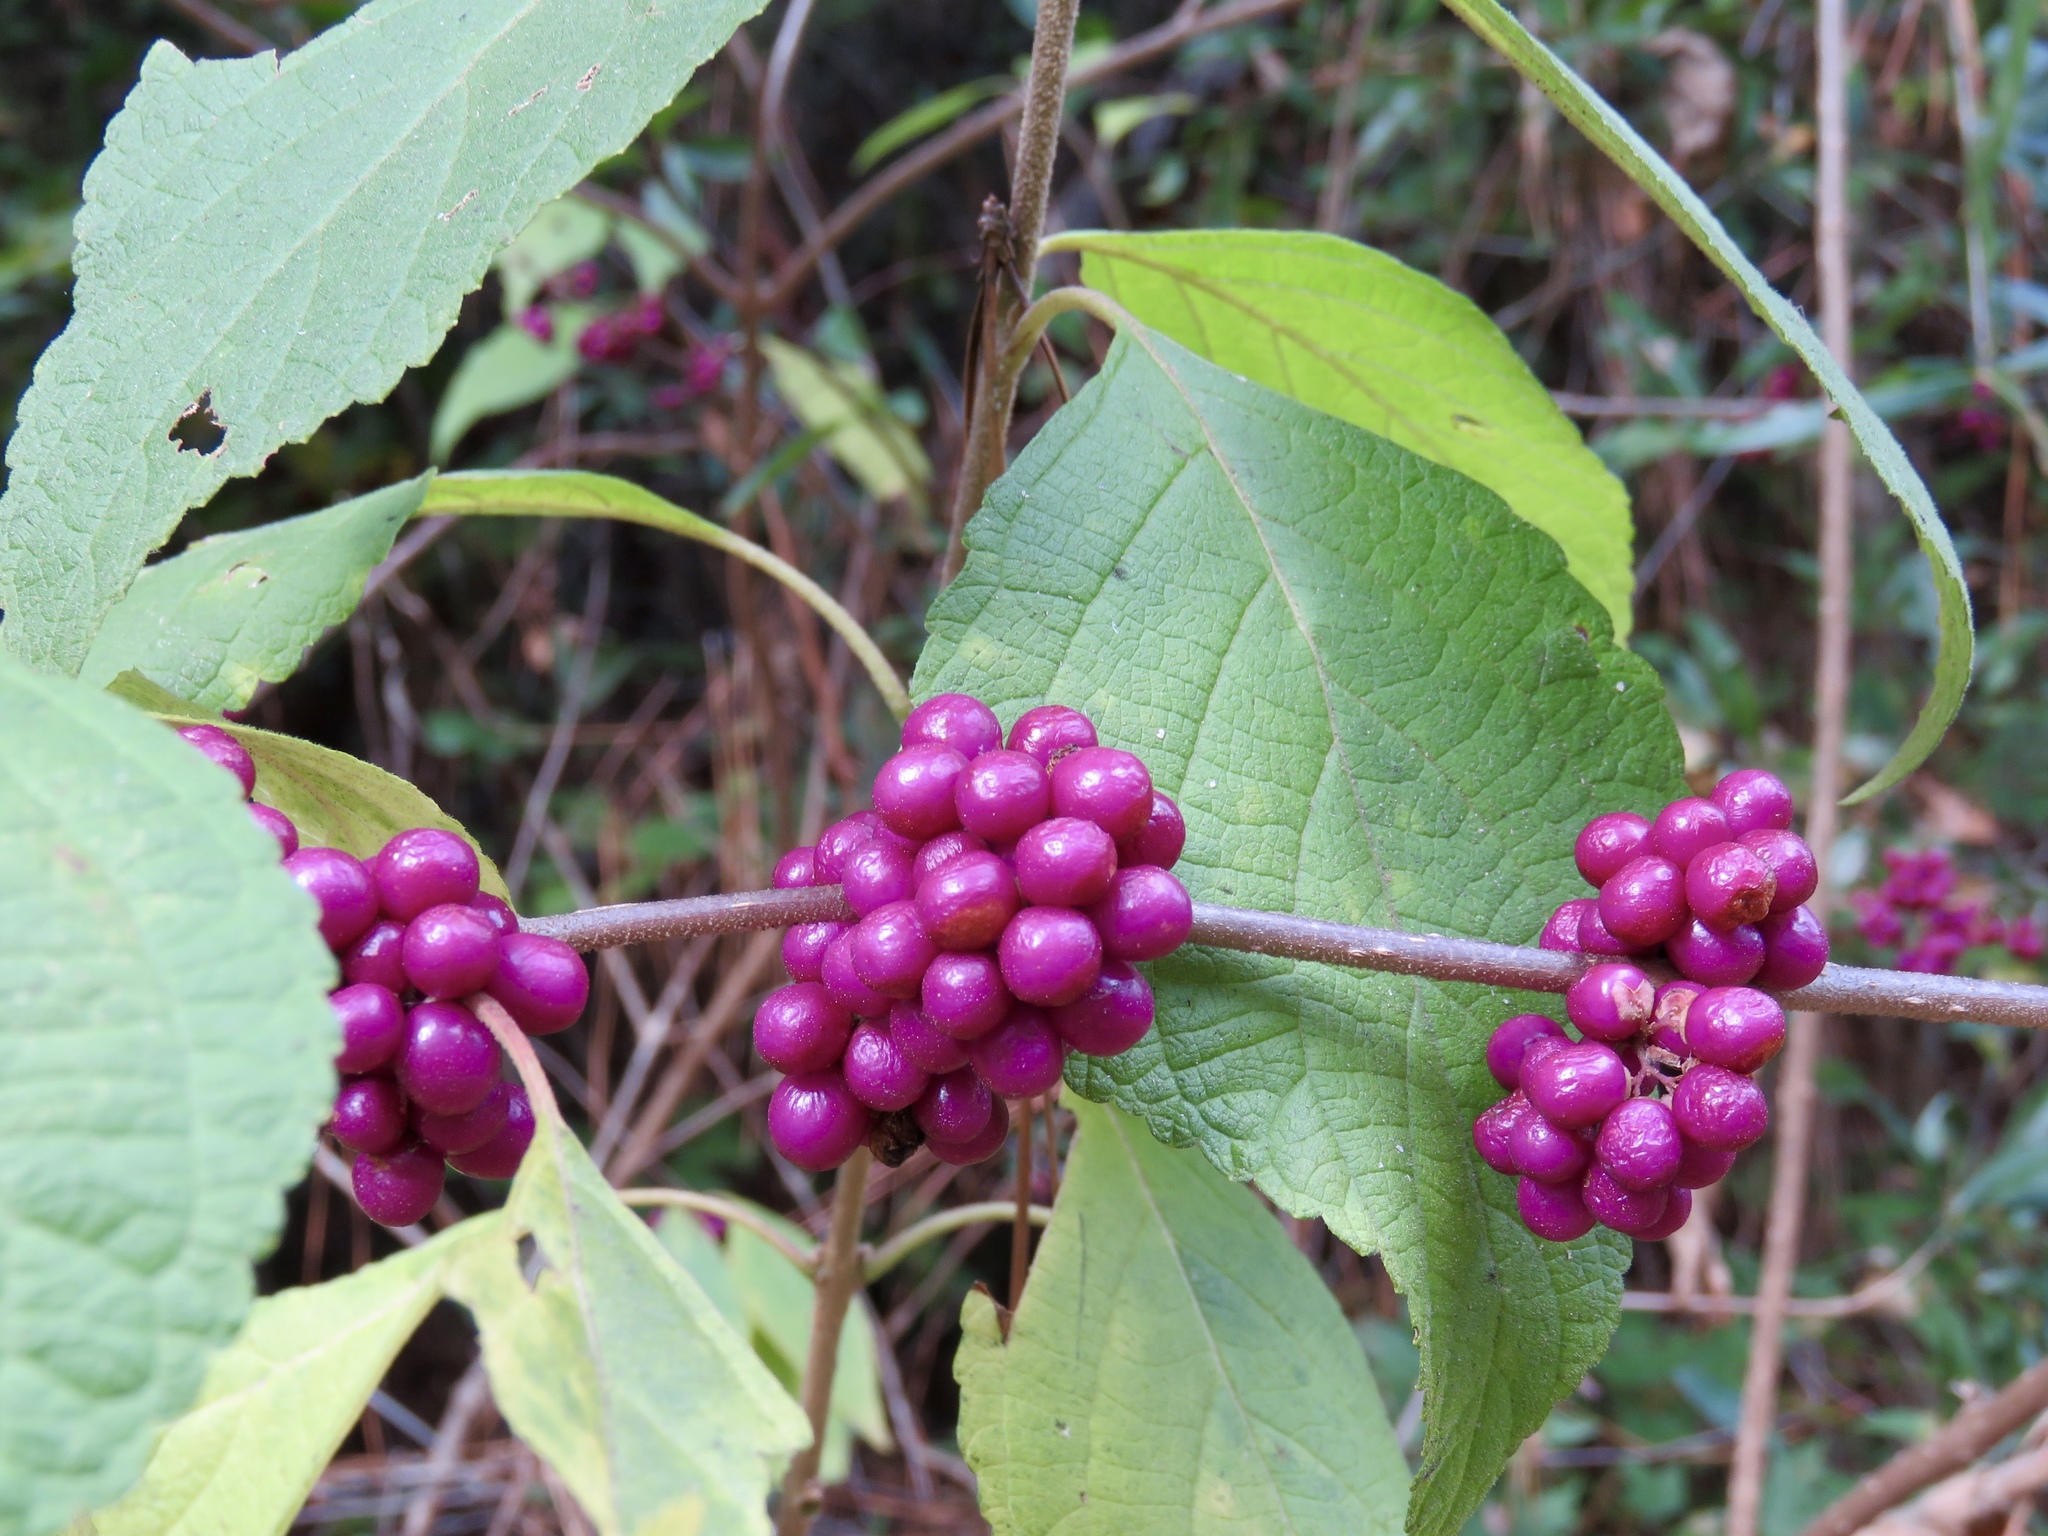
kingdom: Plantae
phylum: Tracheophyta
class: Magnoliopsida
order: Lamiales
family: Lamiaceae
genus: Callicarpa
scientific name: Callicarpa americana
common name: American beautyberry
